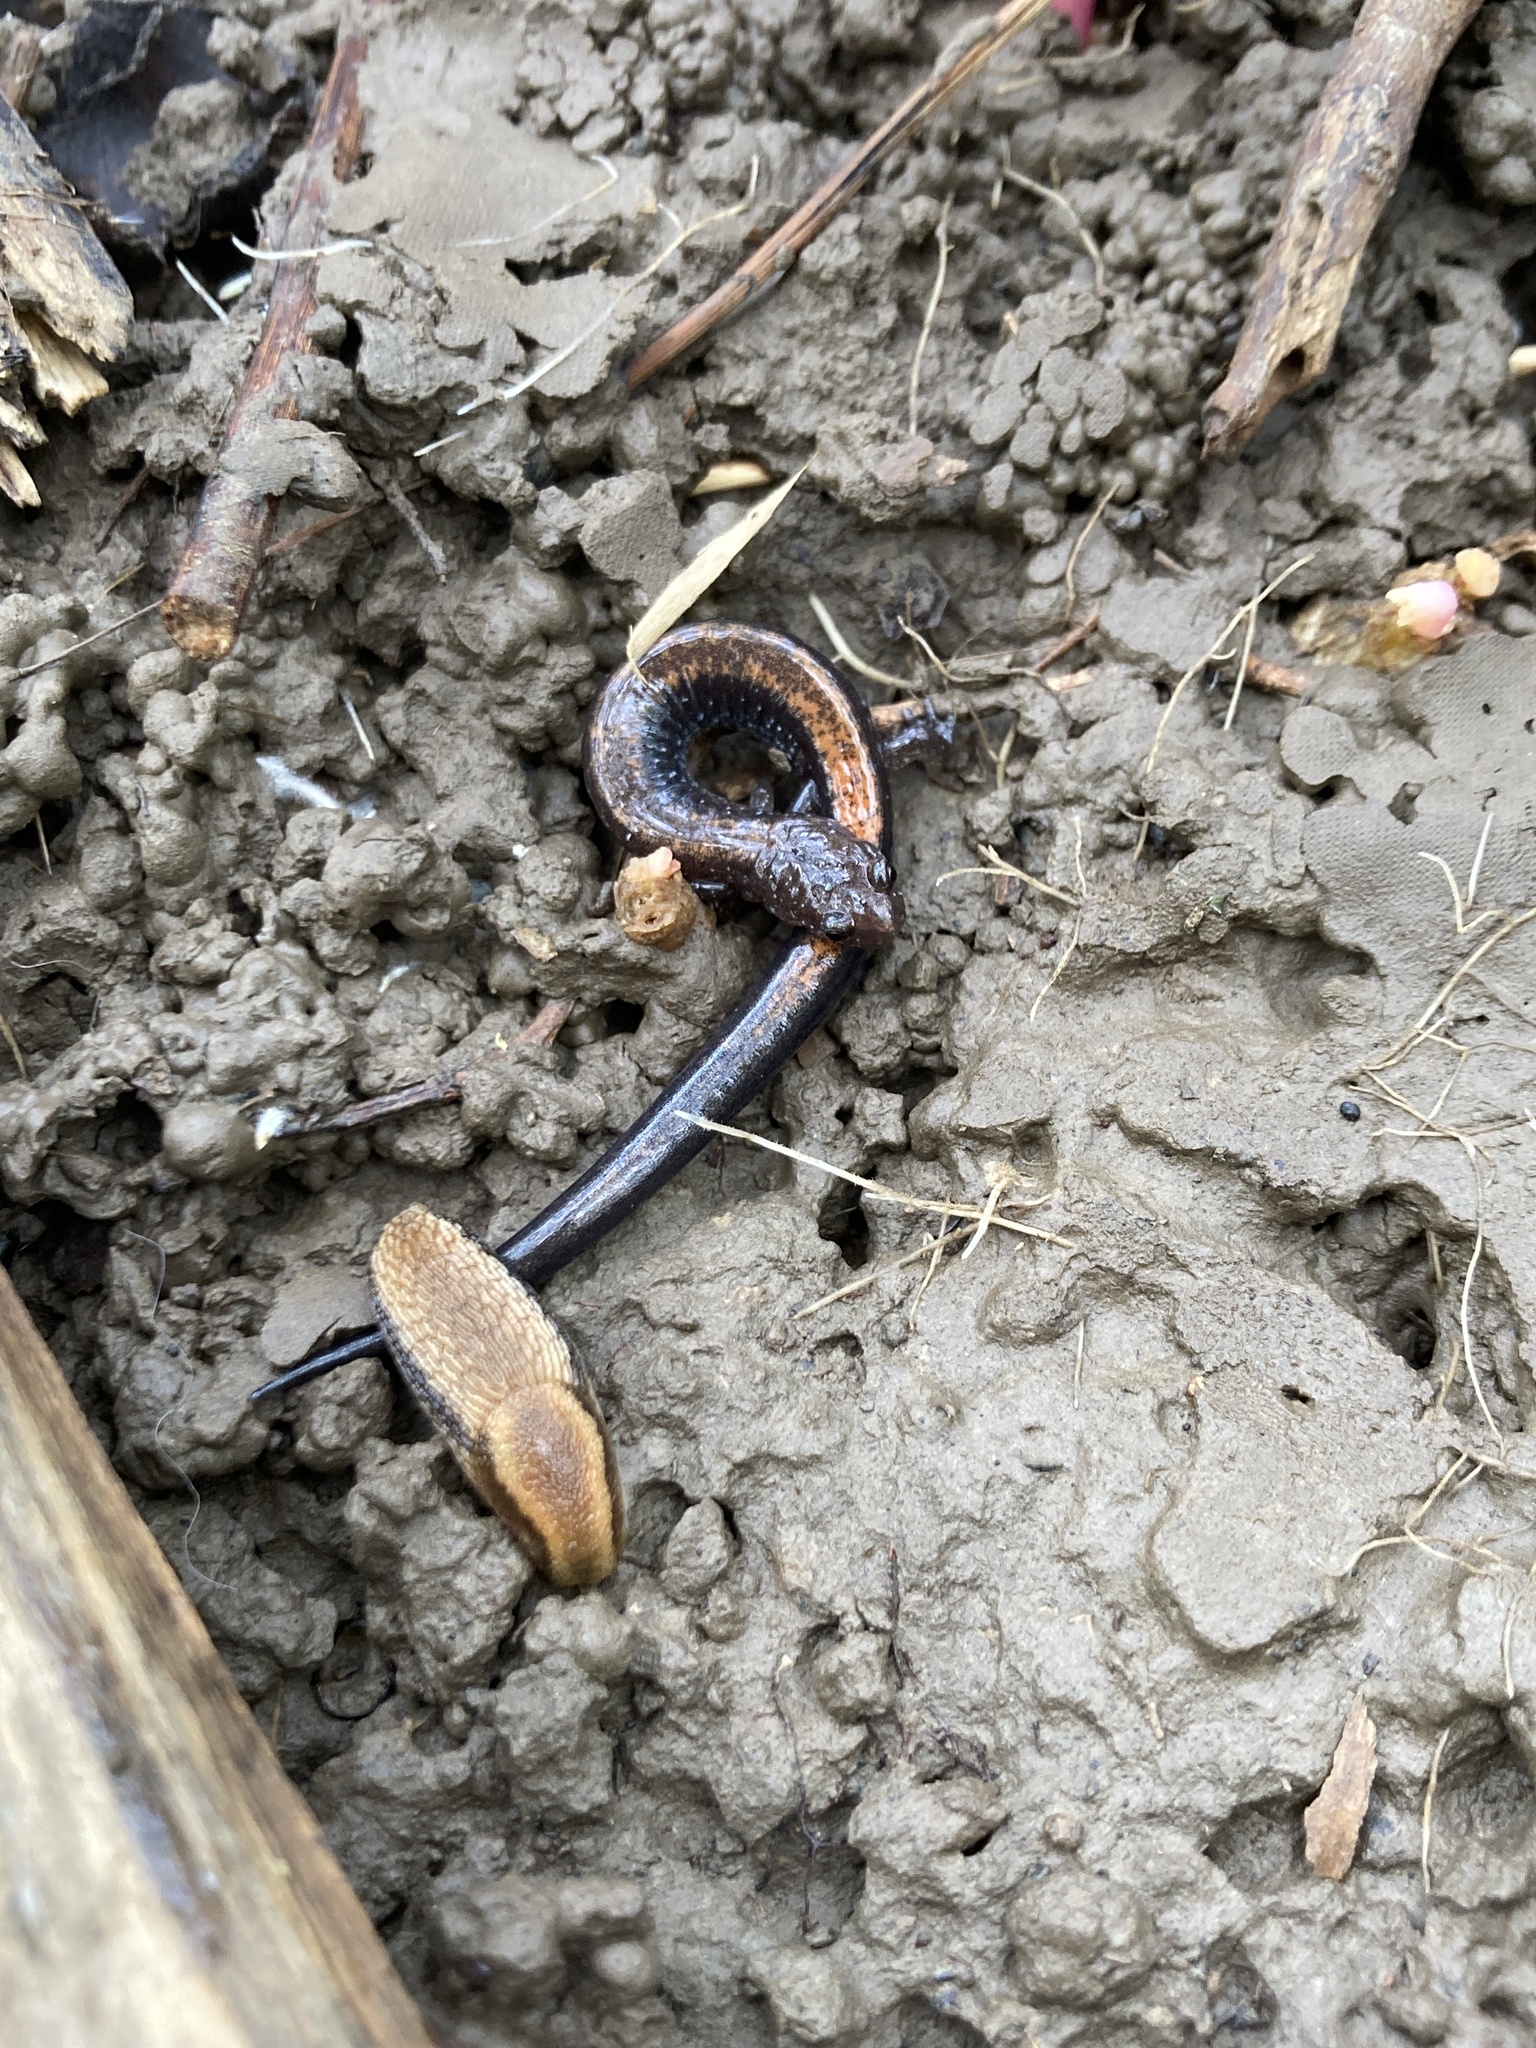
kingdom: Animalia
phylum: Chordata
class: Amphibia
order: Caudata
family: Plethodontidae
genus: Plethodon
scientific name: Plethodon cinereus
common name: Redback salamander
